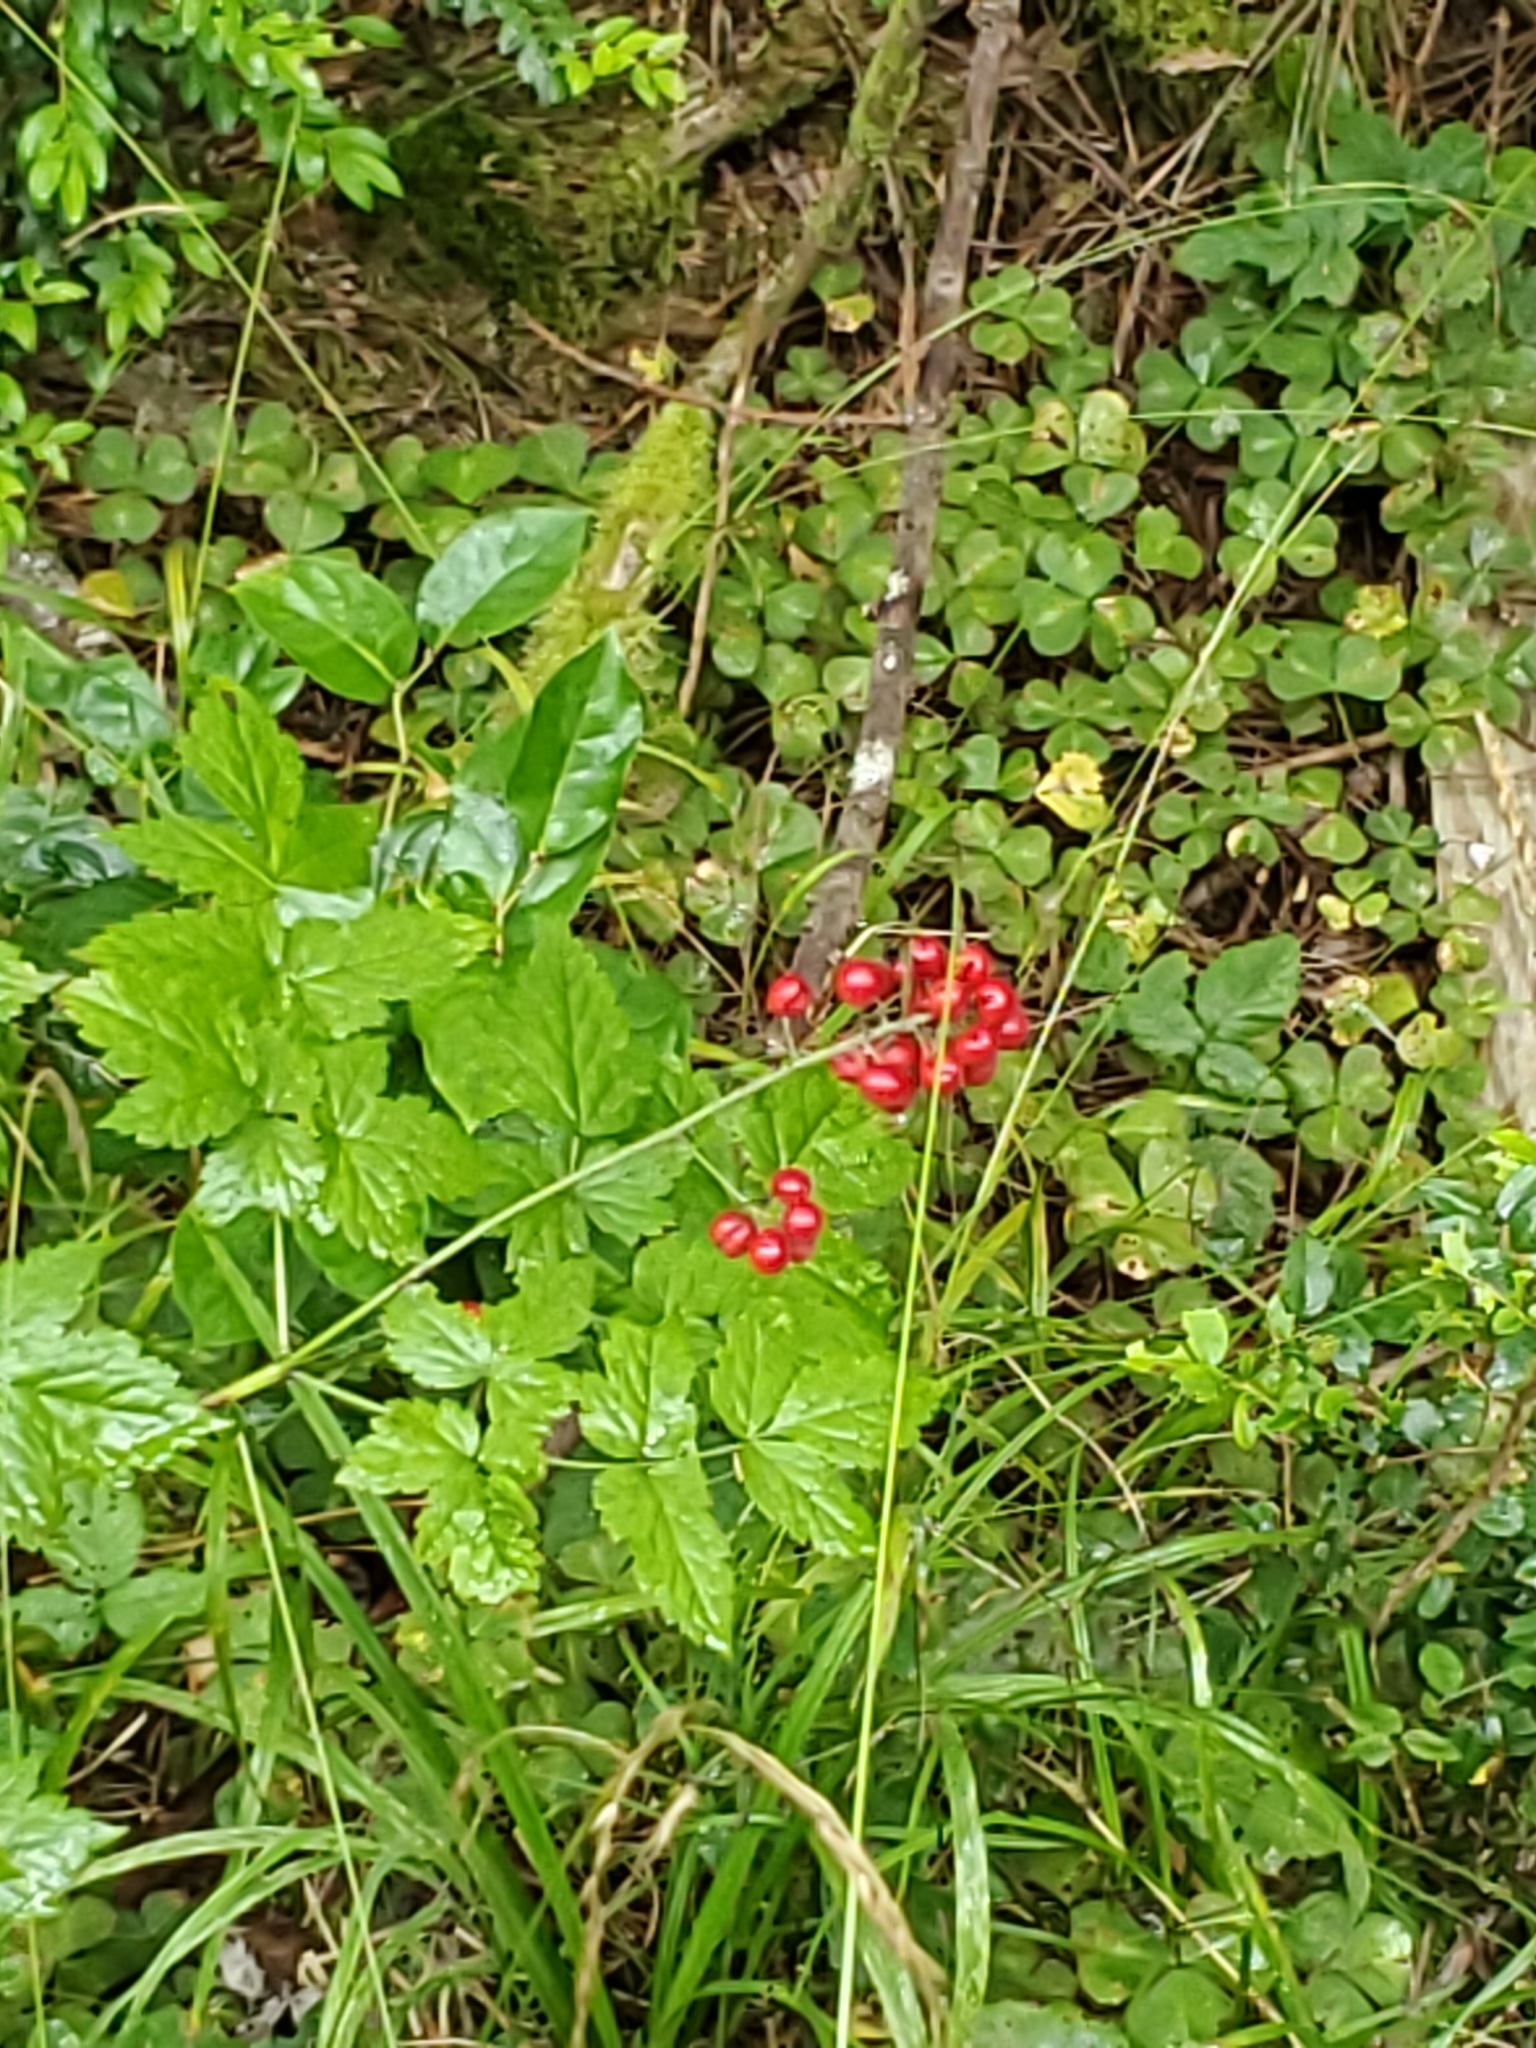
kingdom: Plantae
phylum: Tracheophyta
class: Magnoliopsida
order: Ranunculales
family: Ranunculaceae
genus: Actaea
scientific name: Actaea rubra
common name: Red baneberry
